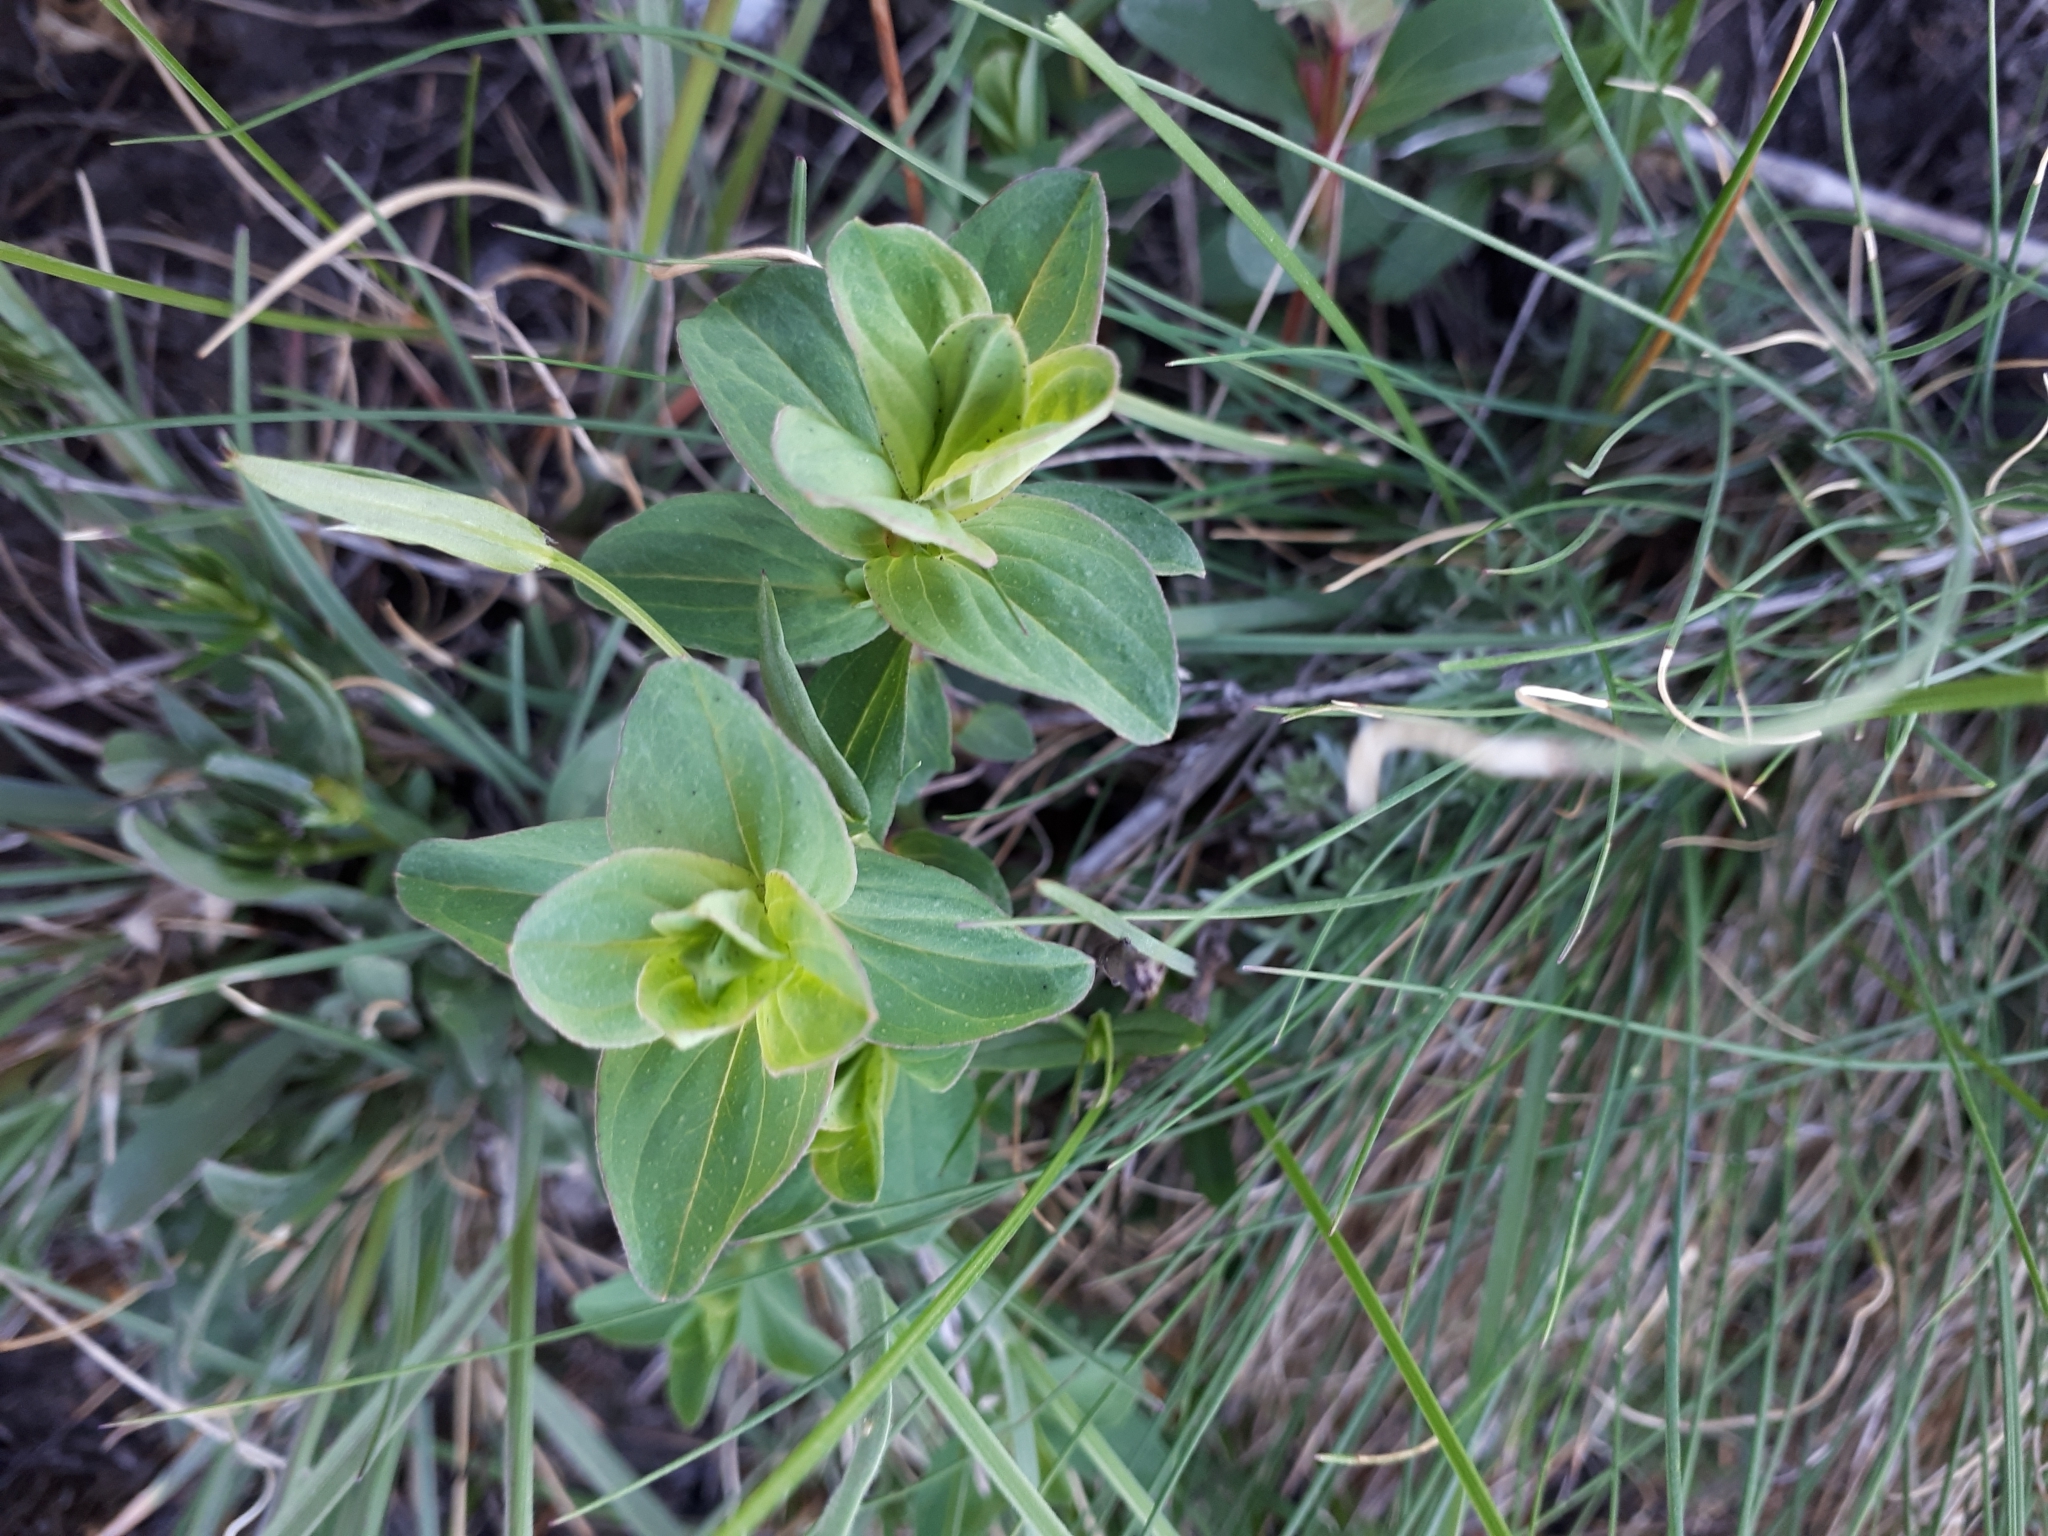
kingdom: Plantae
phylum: Tracheophyta
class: Magnoliopsida
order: Malpighiales
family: Hypericaceae
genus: Hypericum
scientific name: Hypericum perforatum
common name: Common st. johnswort
